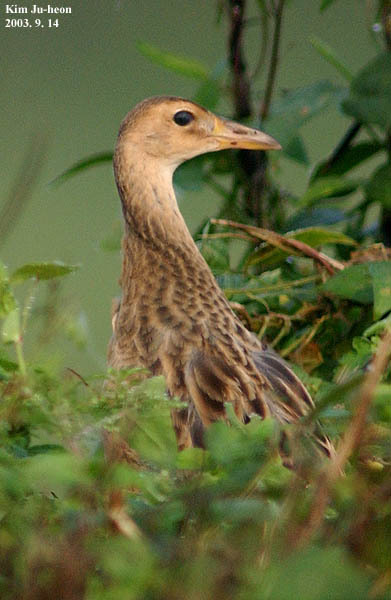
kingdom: Animalia
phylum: Chordata
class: Aves
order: Gruiformes
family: Rallidae
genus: Gallicrex
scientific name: Gallicrex cinerea
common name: Watercock
